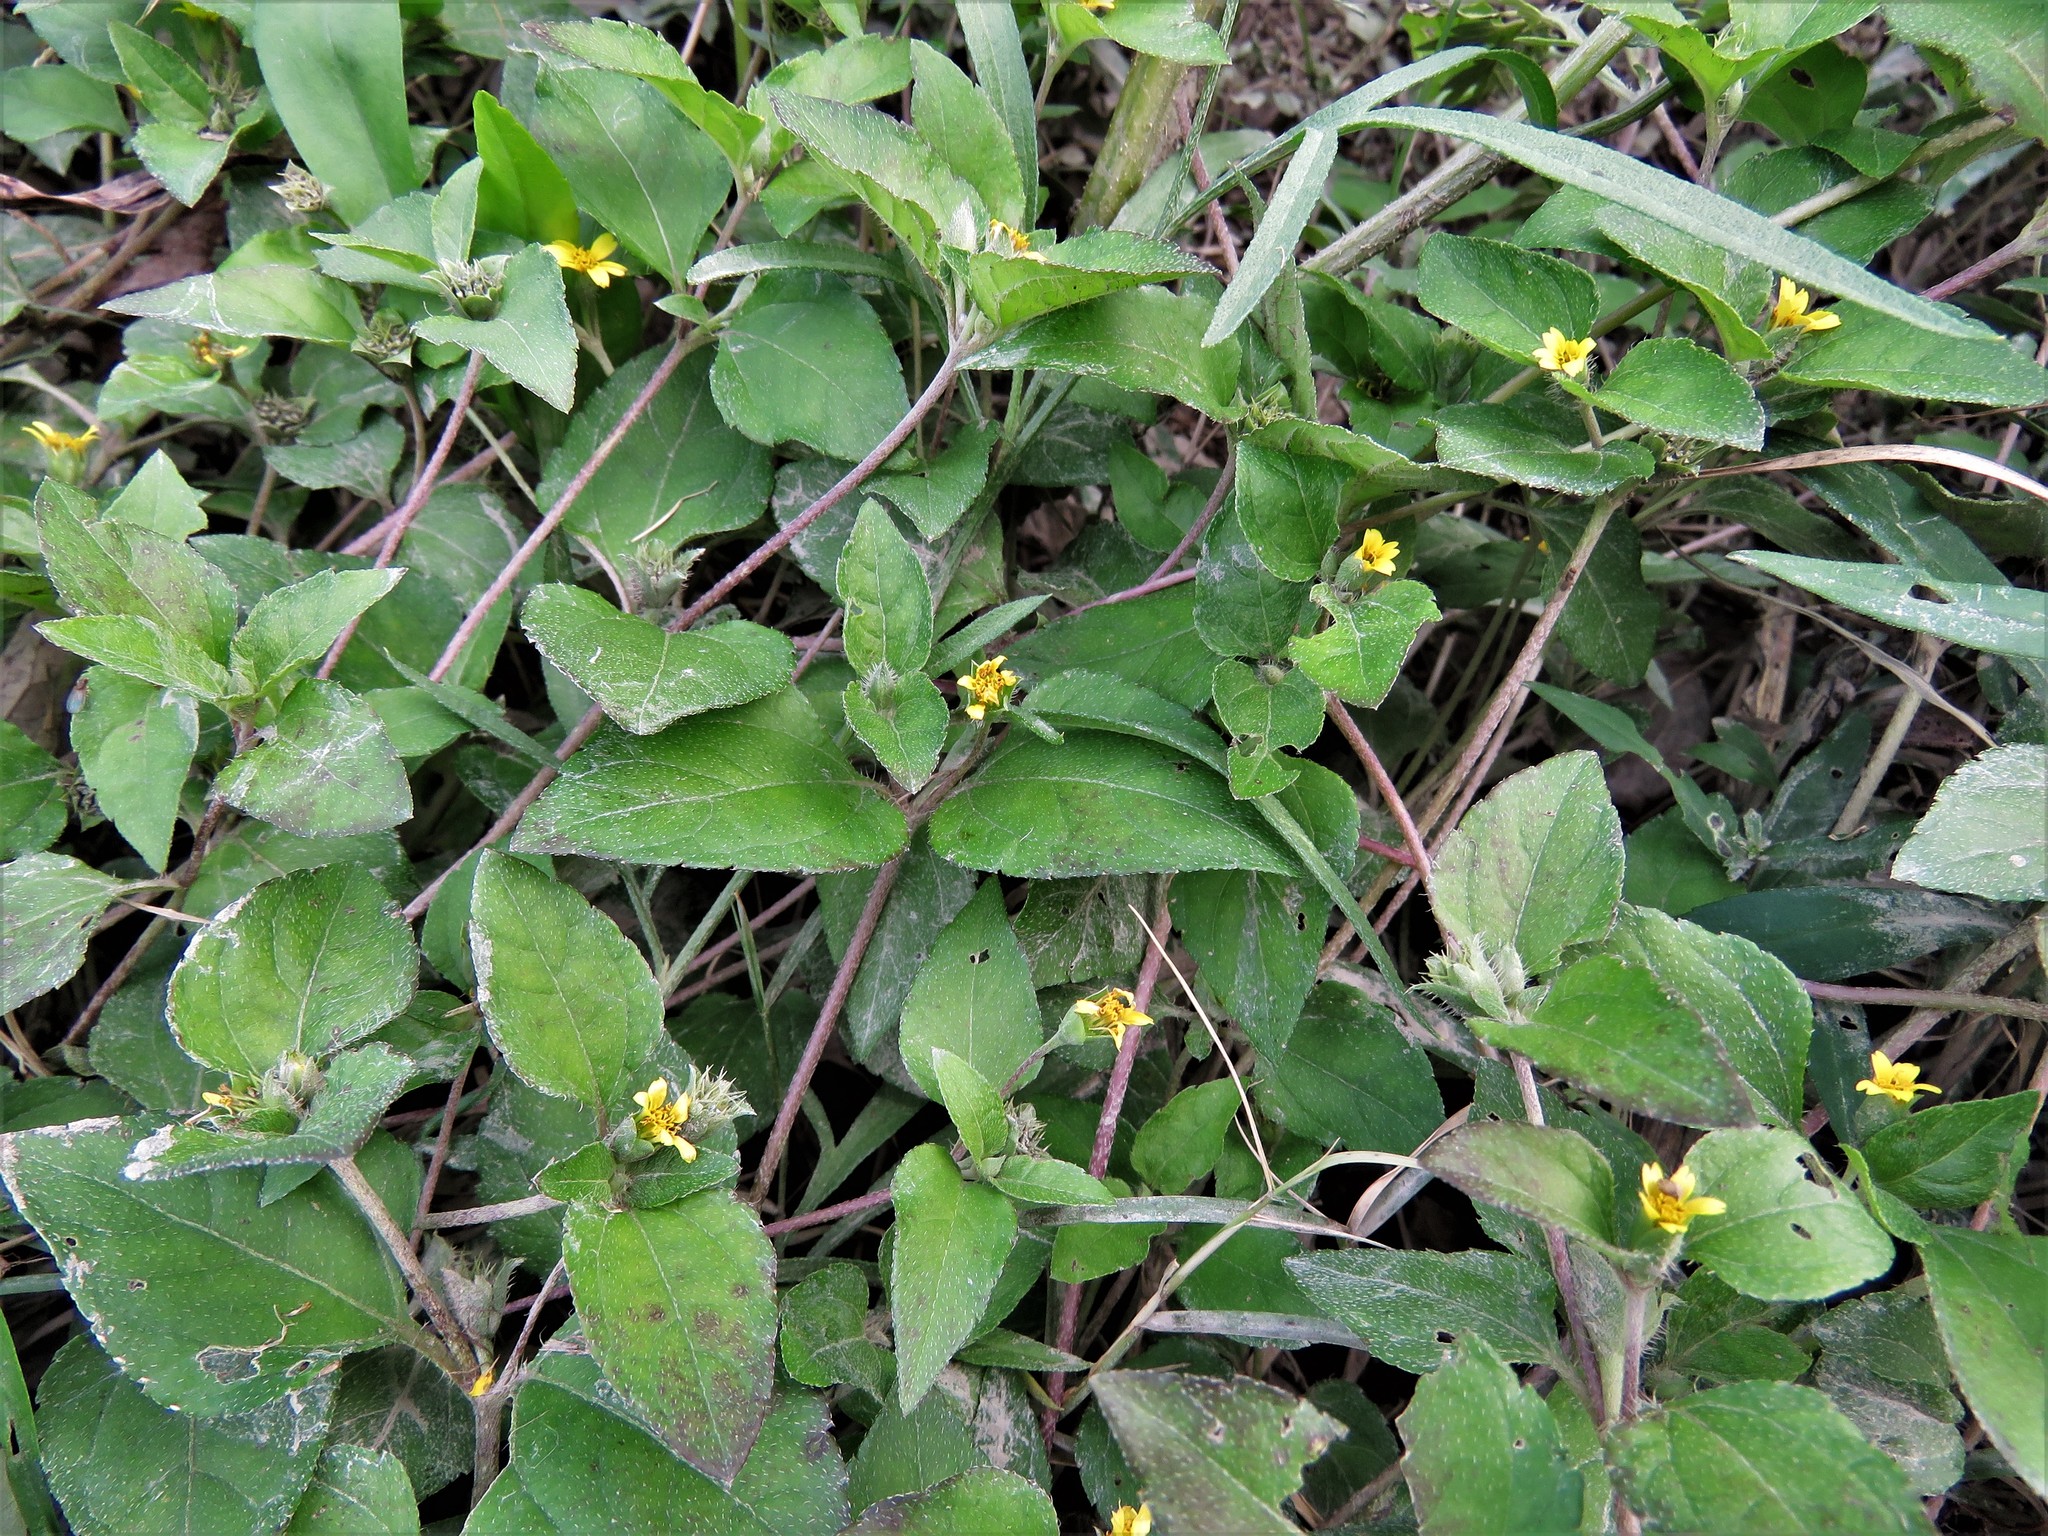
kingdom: Plantae
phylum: Tracheophyta
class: Magnoliopsida
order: Asterales
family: Asteraceae
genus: Calyptocarpus
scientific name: Calyptocarpus vialis
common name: Straggler daisy
